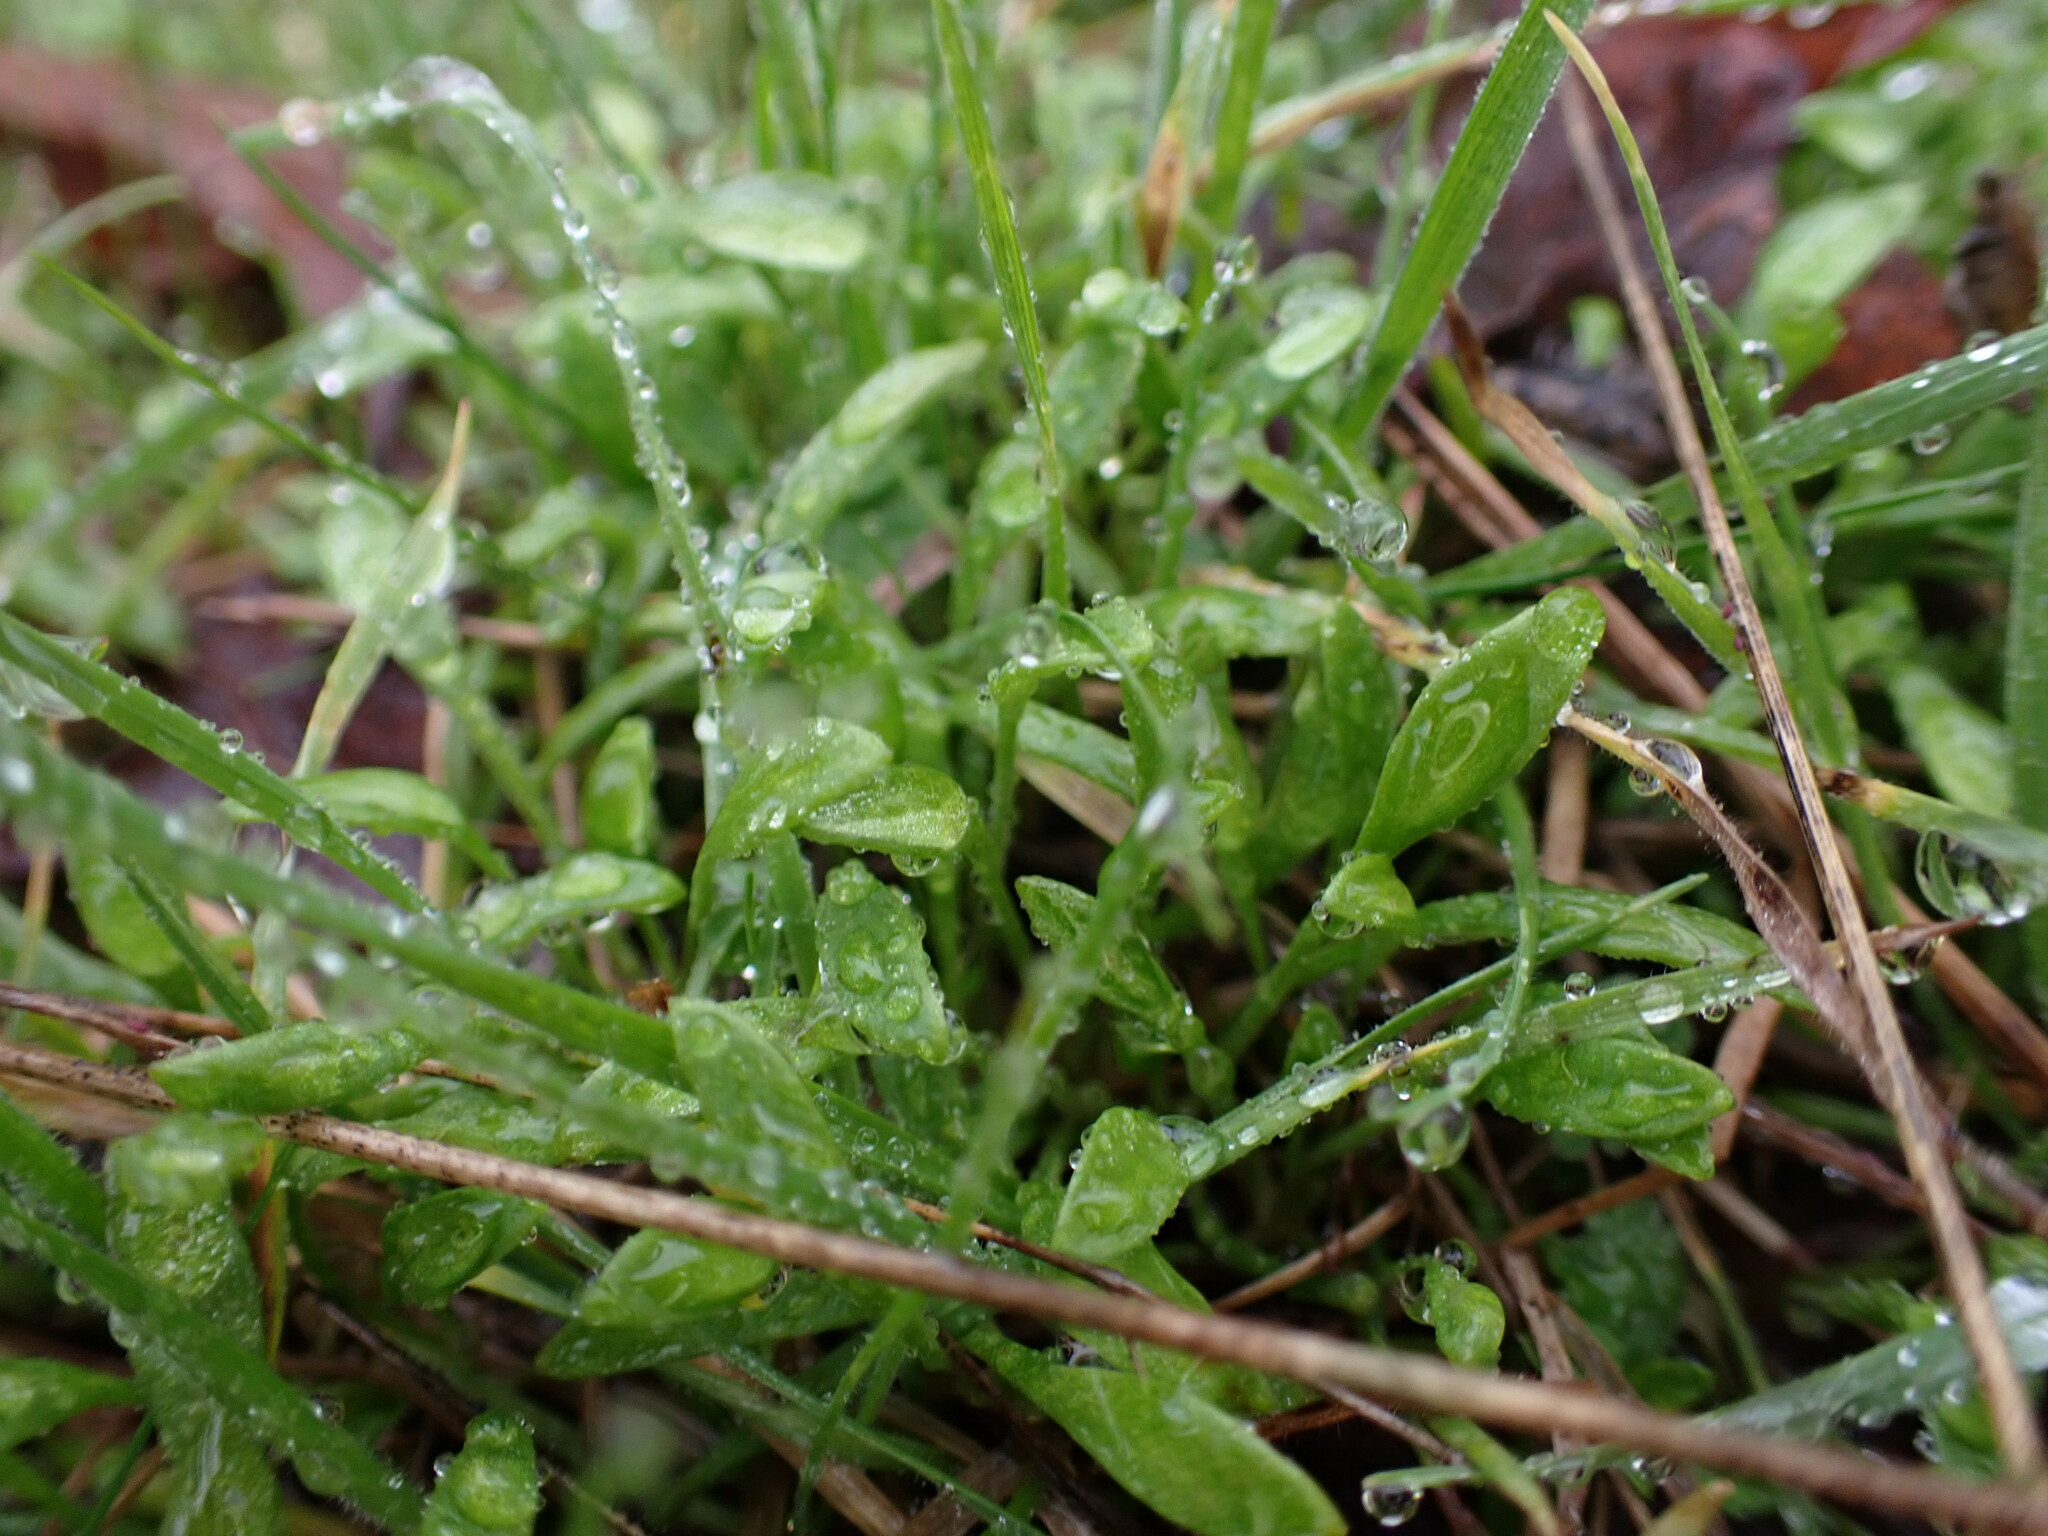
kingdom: Plantae
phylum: Tracheophyta
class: Magnoliopsida
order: Caryophyllales
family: Montiaceae
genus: Claytonia
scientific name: Claytonia perfoliata
